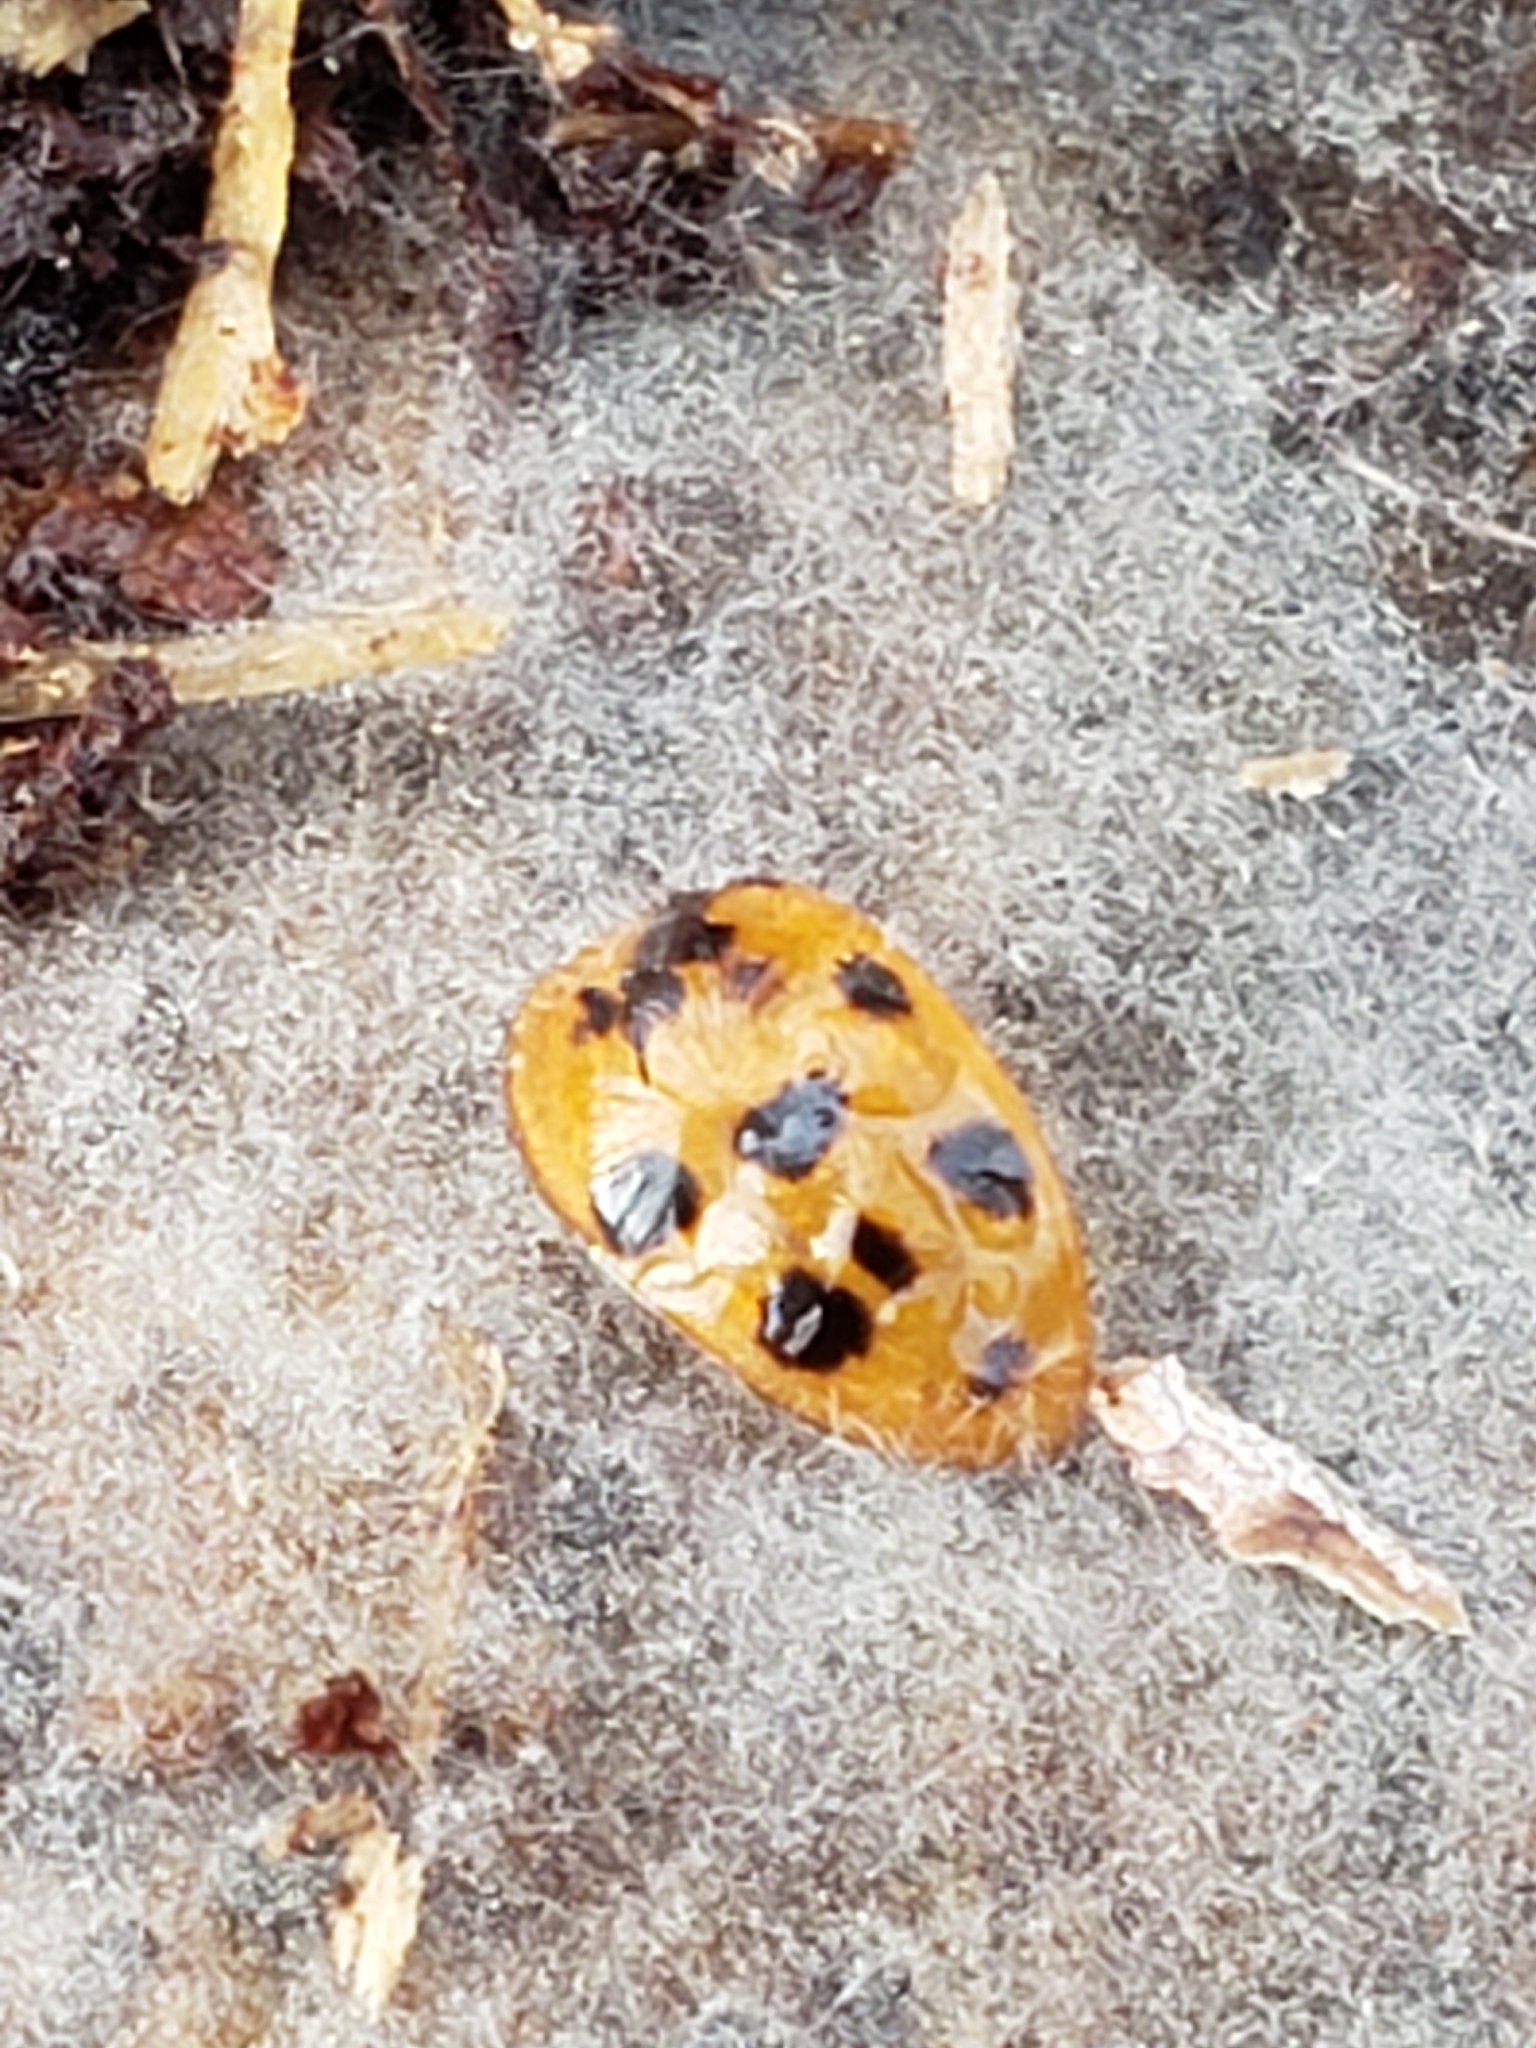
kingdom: Animalia
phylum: Arthropoda
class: Insecta
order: Coleoptera
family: Coccinellidae
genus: Harmonia
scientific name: Harmonia axyridis
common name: Harlequin ladybird
